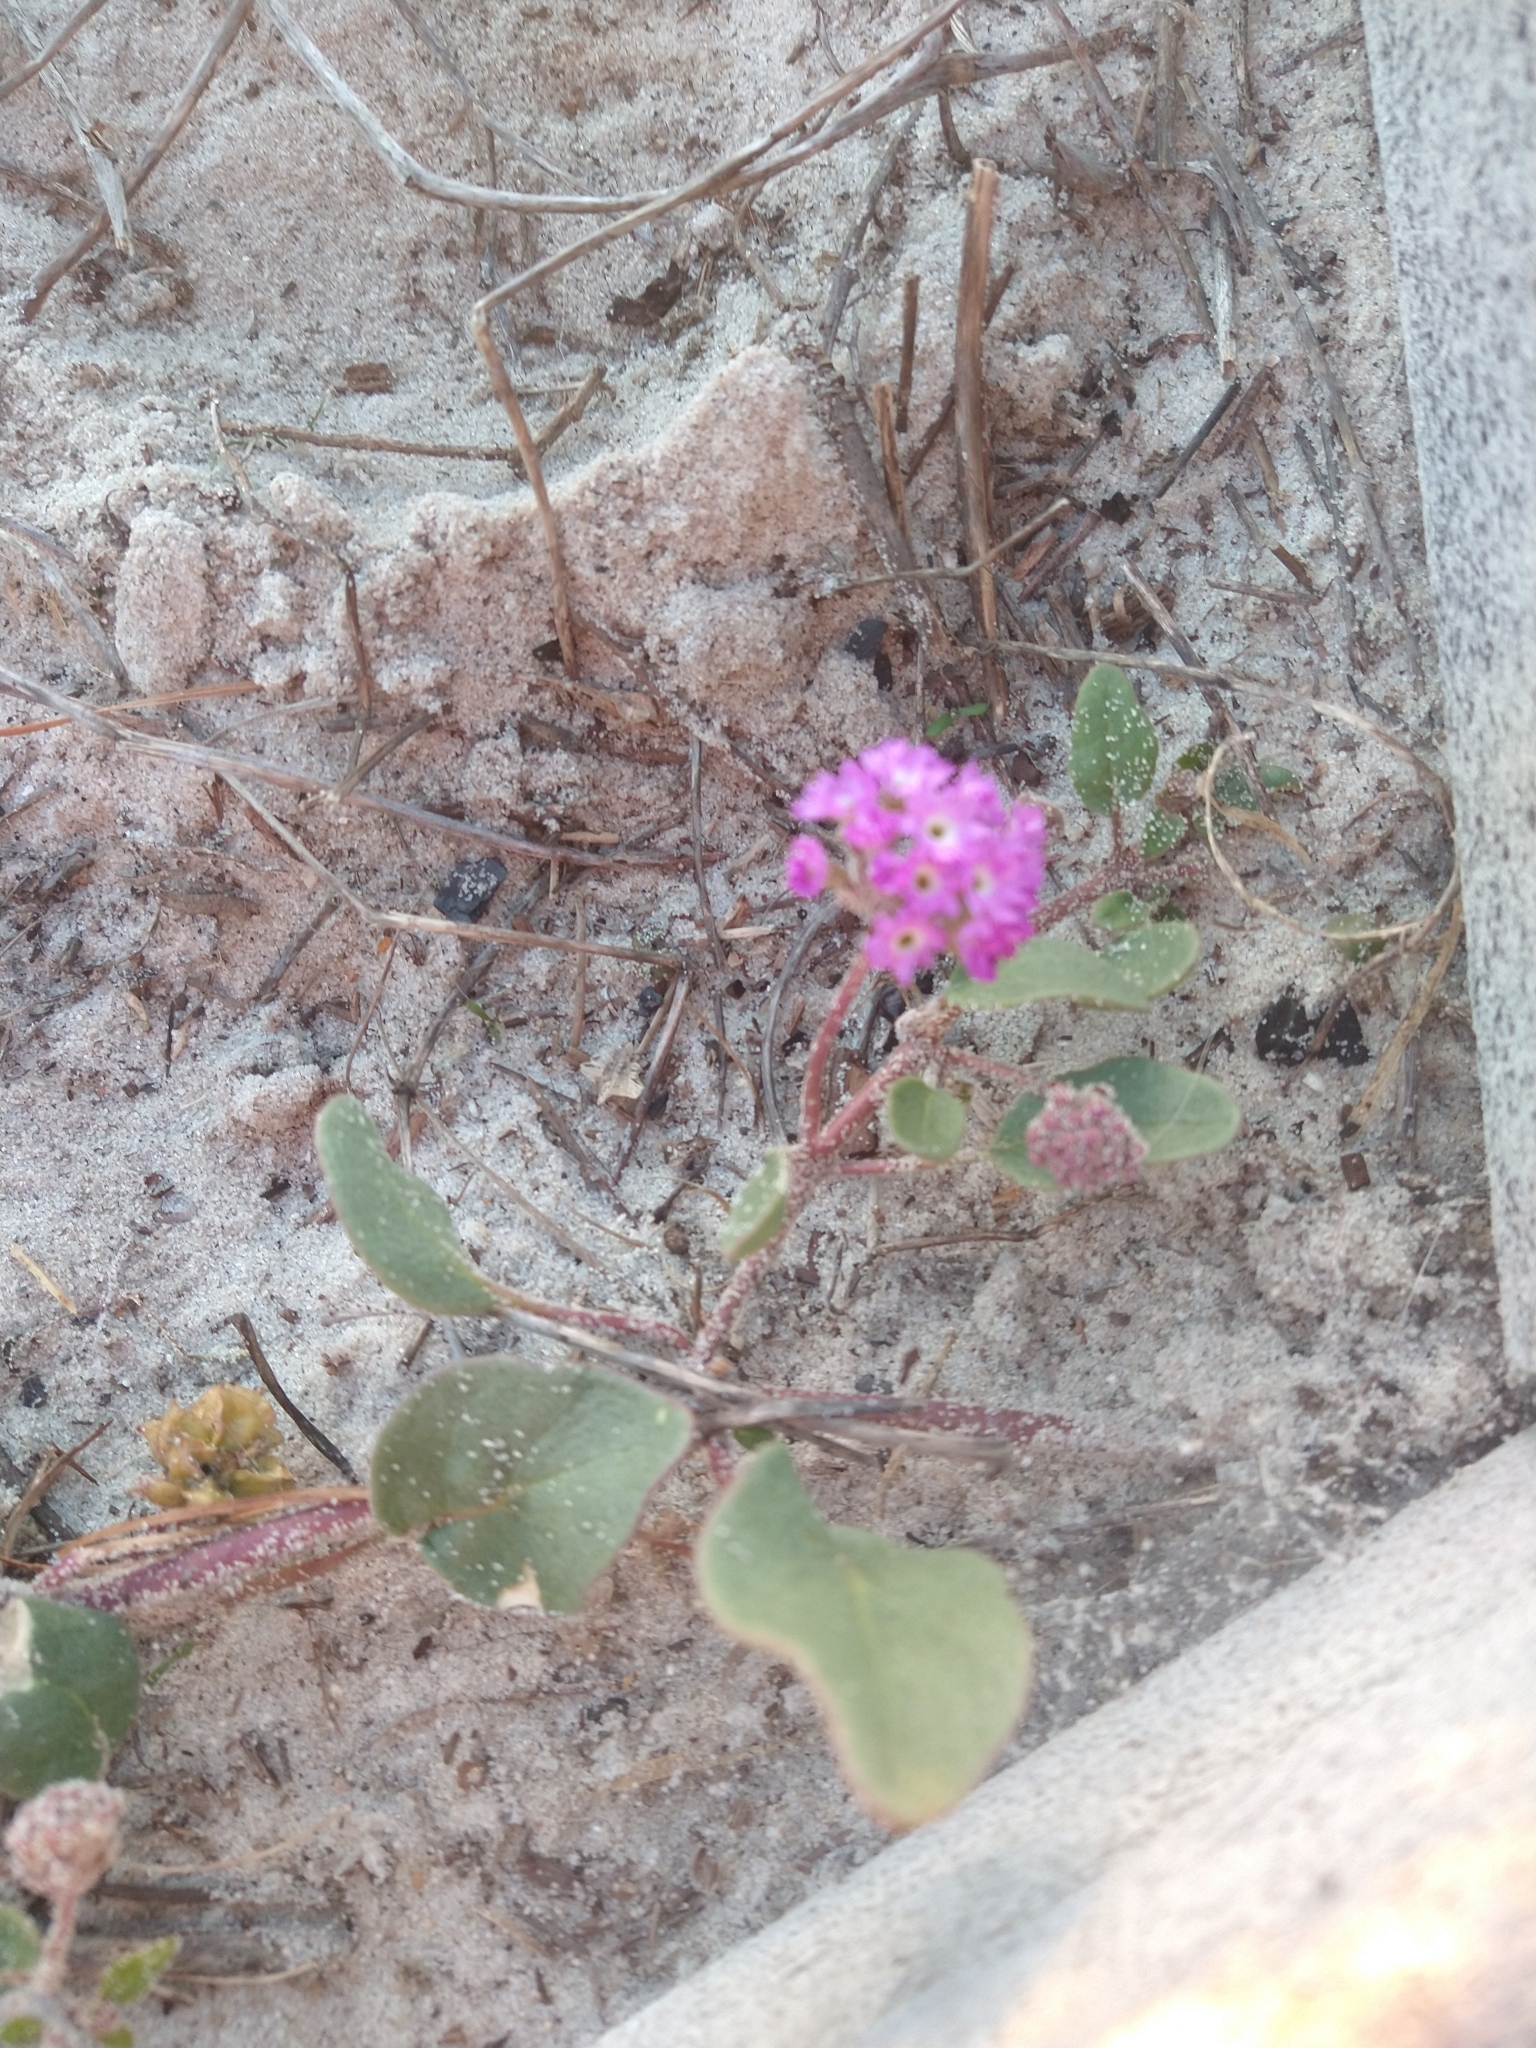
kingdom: Plantae
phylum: Tracheophyta
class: Magnoliopsida
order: Caryophyllales
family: Nyctaginaceae
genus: Abronia
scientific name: Abronia umbellata
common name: Sand-verbena
